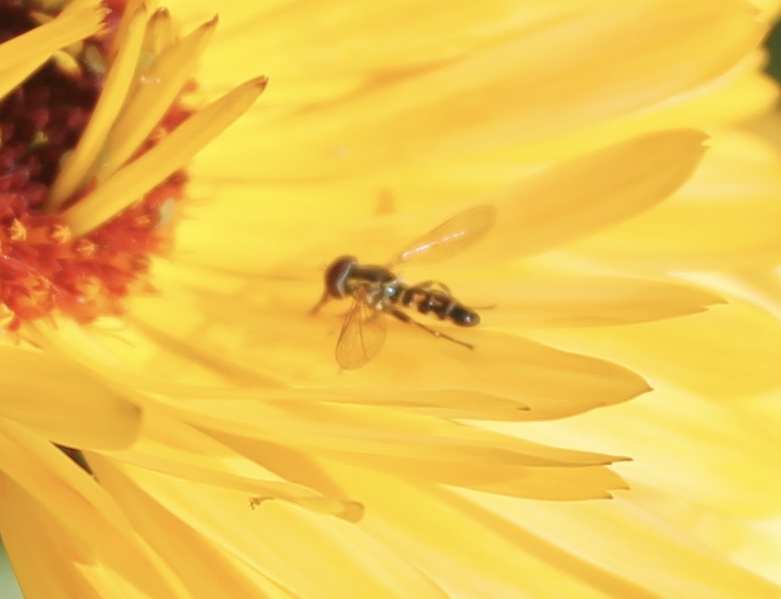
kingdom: Animalia
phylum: Arthropoda
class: Insecta
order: Diptera
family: Syrphidae
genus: Toxomerus
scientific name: Toxomerus geminatus
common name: Eastern calligrapher
